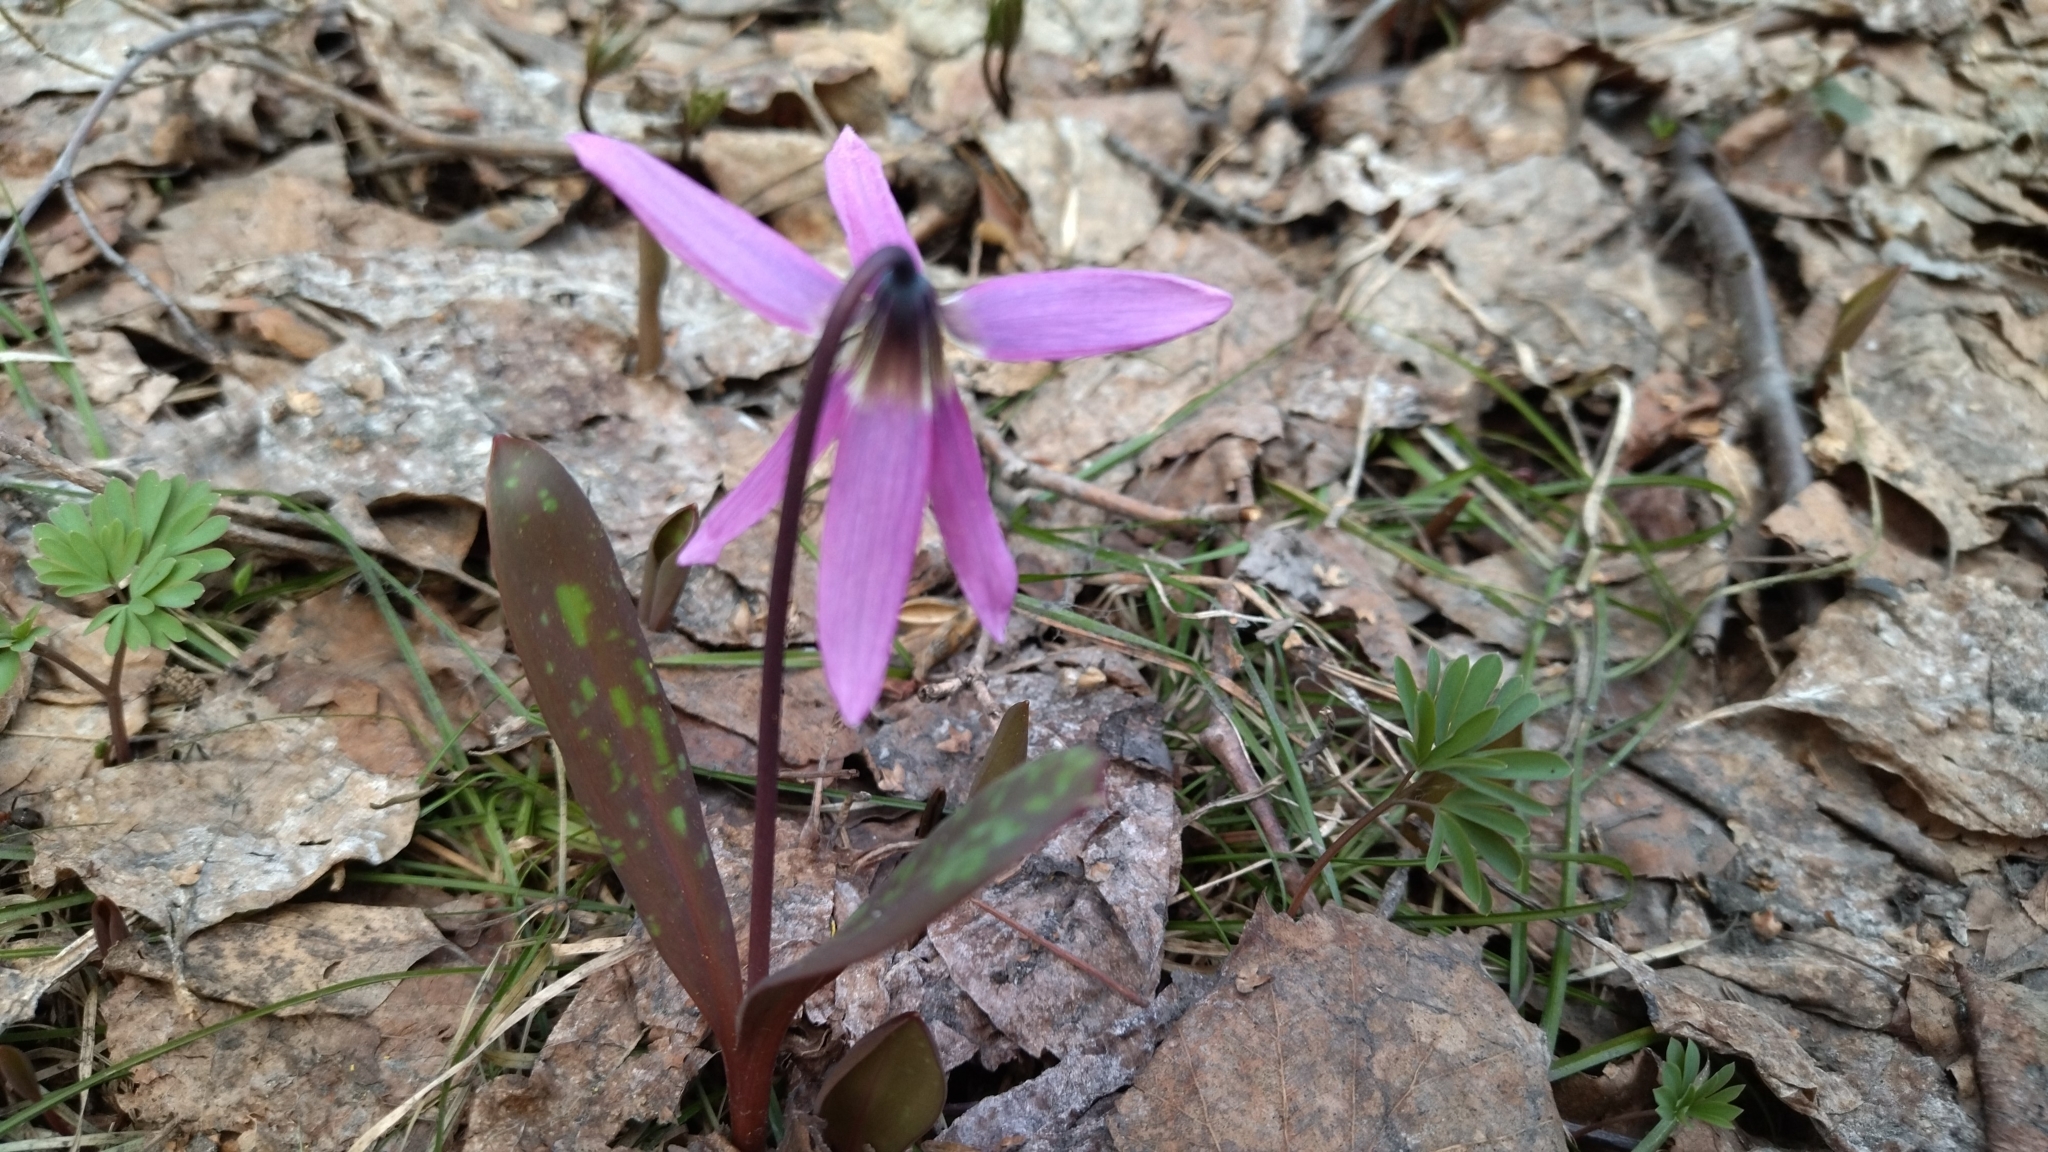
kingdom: Plantae
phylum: Tracheophyta
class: Liliopsida
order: Liliales
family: Liliaceae
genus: Erythronium
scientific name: Erythronium sibiricum
